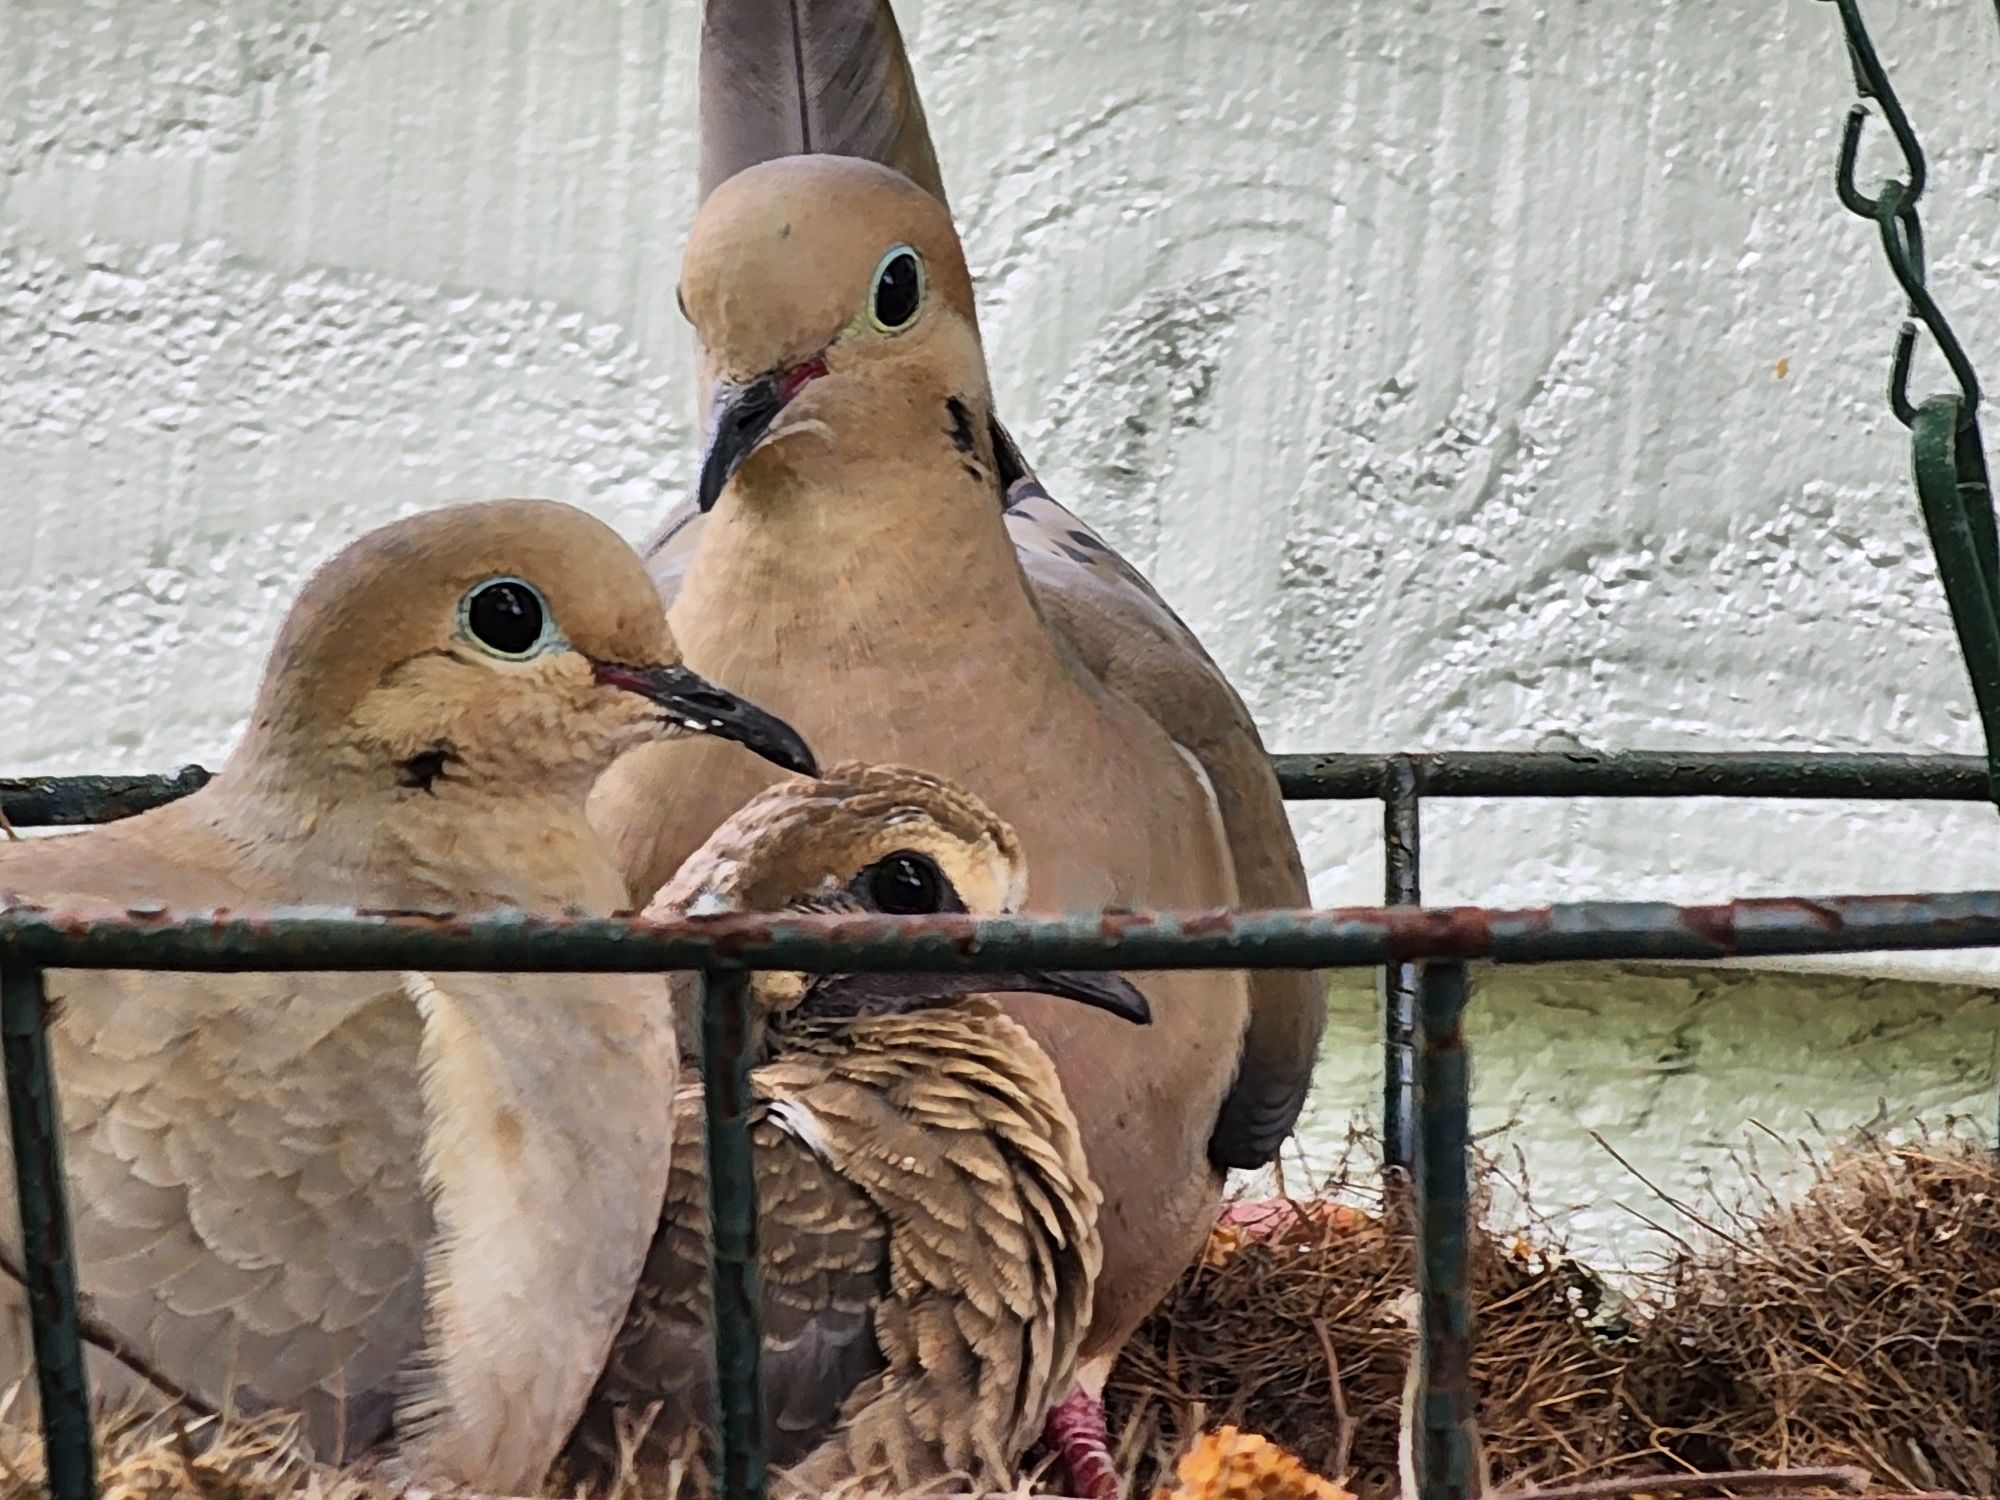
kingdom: Animalia
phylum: Chordata
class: Aves
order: Columbiformes
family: Columbidae
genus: Zenaida
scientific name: Zenaida macroura
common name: Mourning dove
